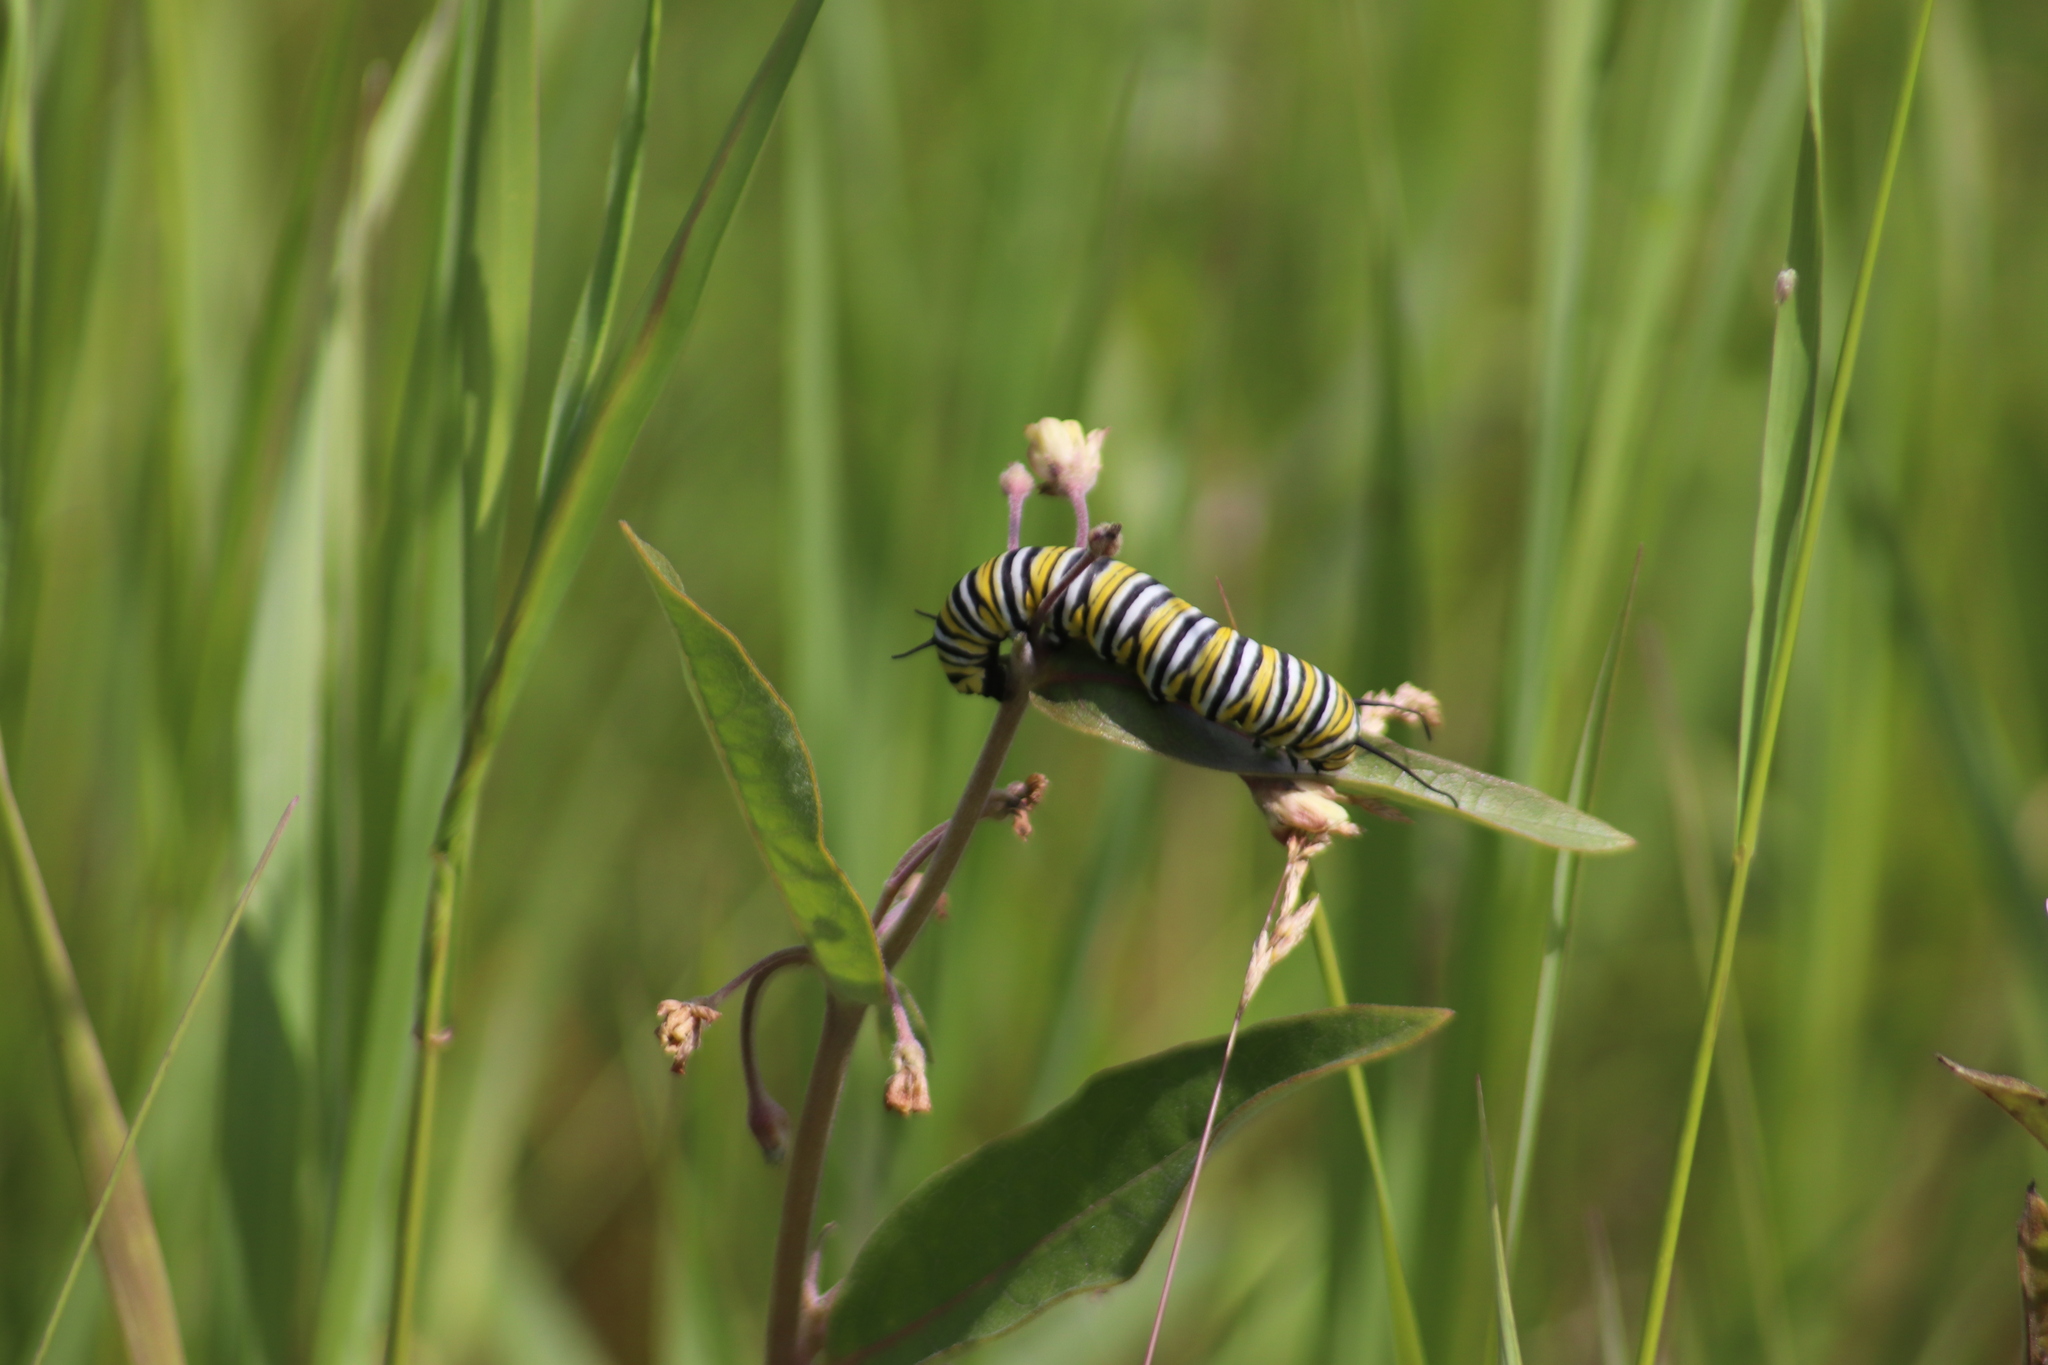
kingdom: Animalia
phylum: Arthropoda
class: Insecta
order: Lepidoptera
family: Nymphalidae
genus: Danaus
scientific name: Danaus plexippus
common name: Monarch
